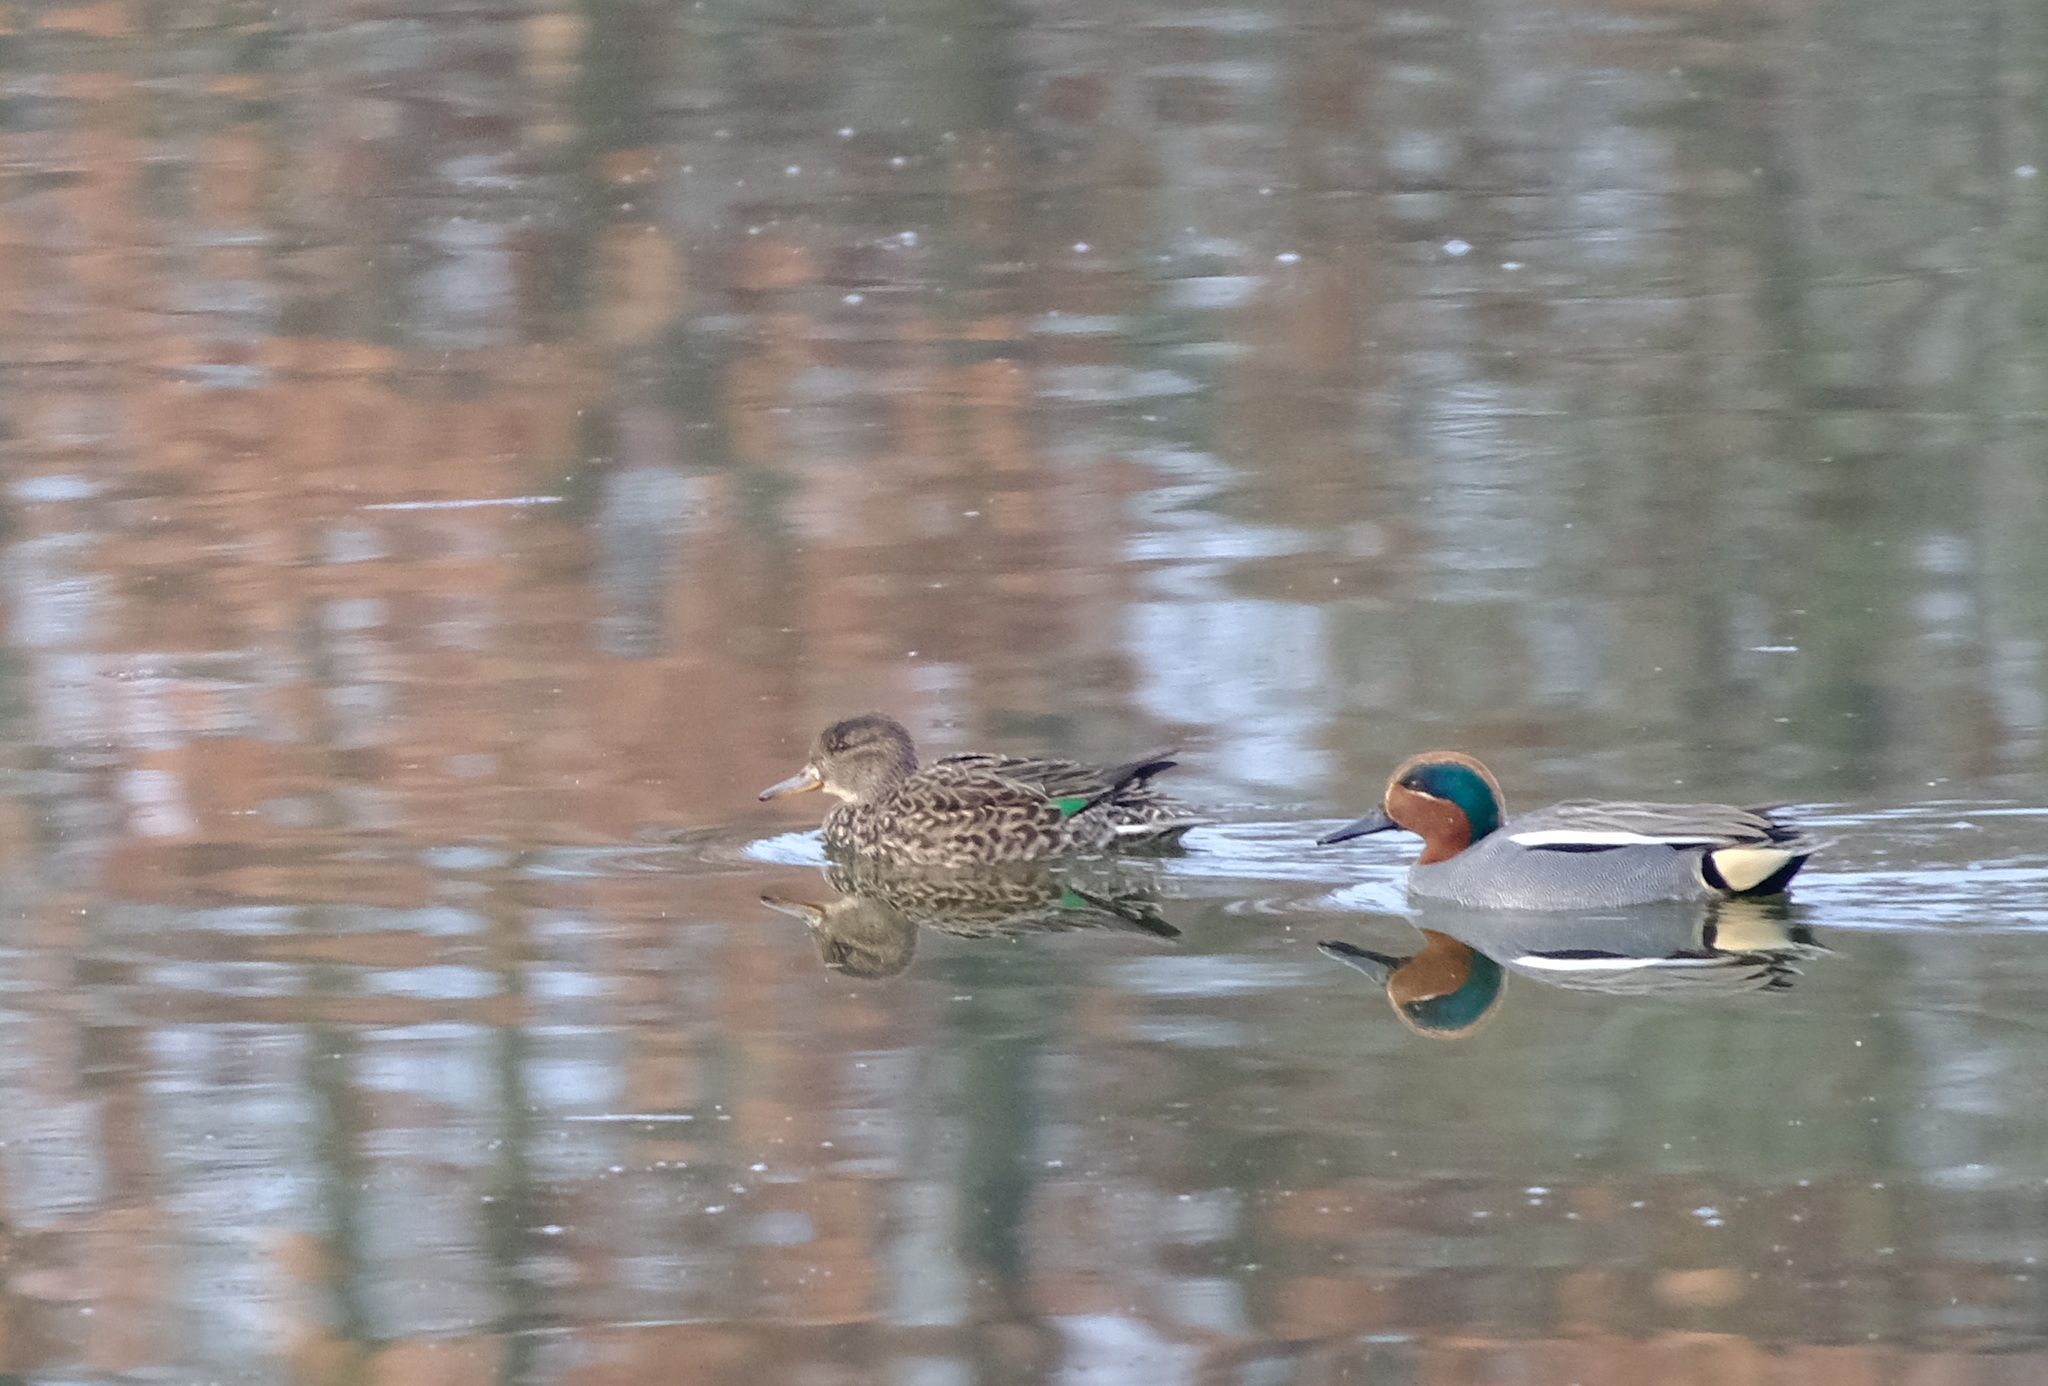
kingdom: Animalia
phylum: Chordata
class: Aves
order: Anseriformes
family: Anatidae
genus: Anas
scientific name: Anas crecca
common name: Eurasian teal
